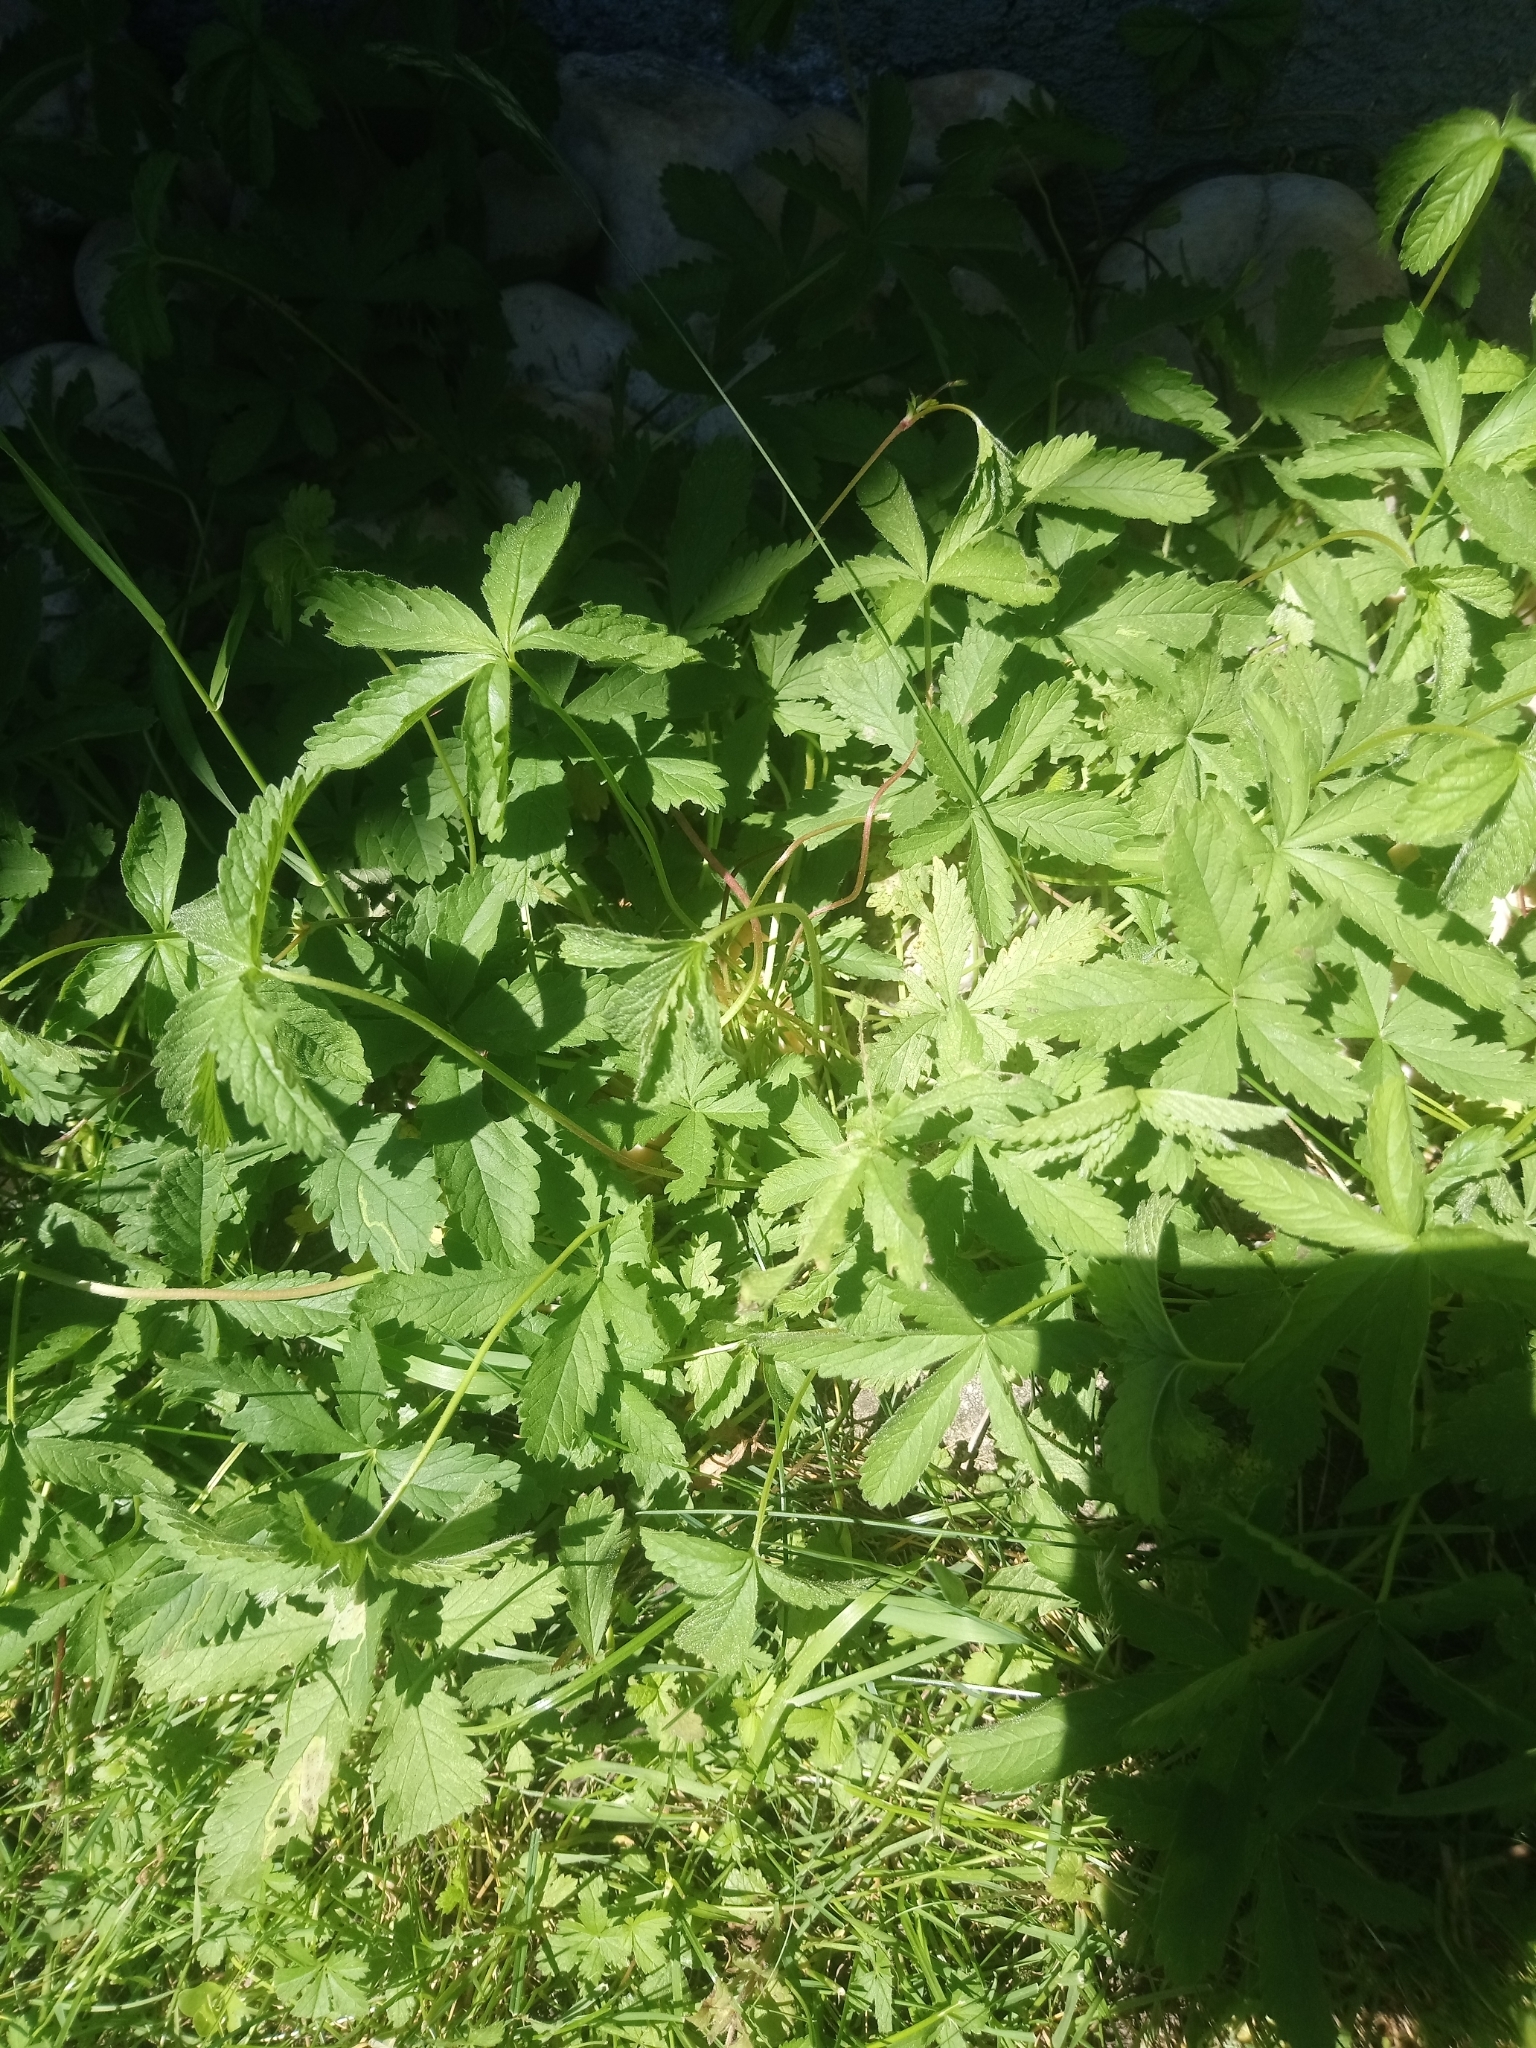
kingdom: Plantae
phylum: Tracheophyta
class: Magnoliopsida
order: Rosales
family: Rosaceae
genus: Potentilla
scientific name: Potentilla reptans
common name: Creeping cinquefoil
